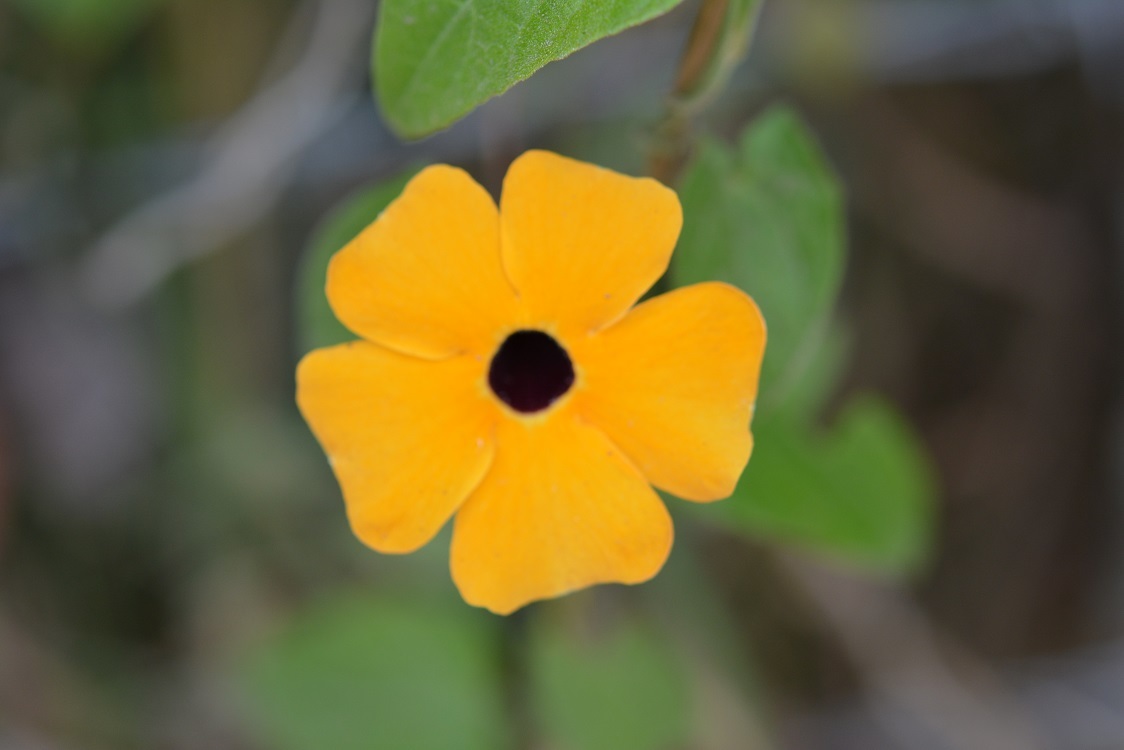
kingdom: Plantae
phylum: Tracheophyta
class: Magnoliopsida
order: Lamiales
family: Acanthaceae
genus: Thunbergia
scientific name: Thunbergia alata
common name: Blackeyed susan vine
